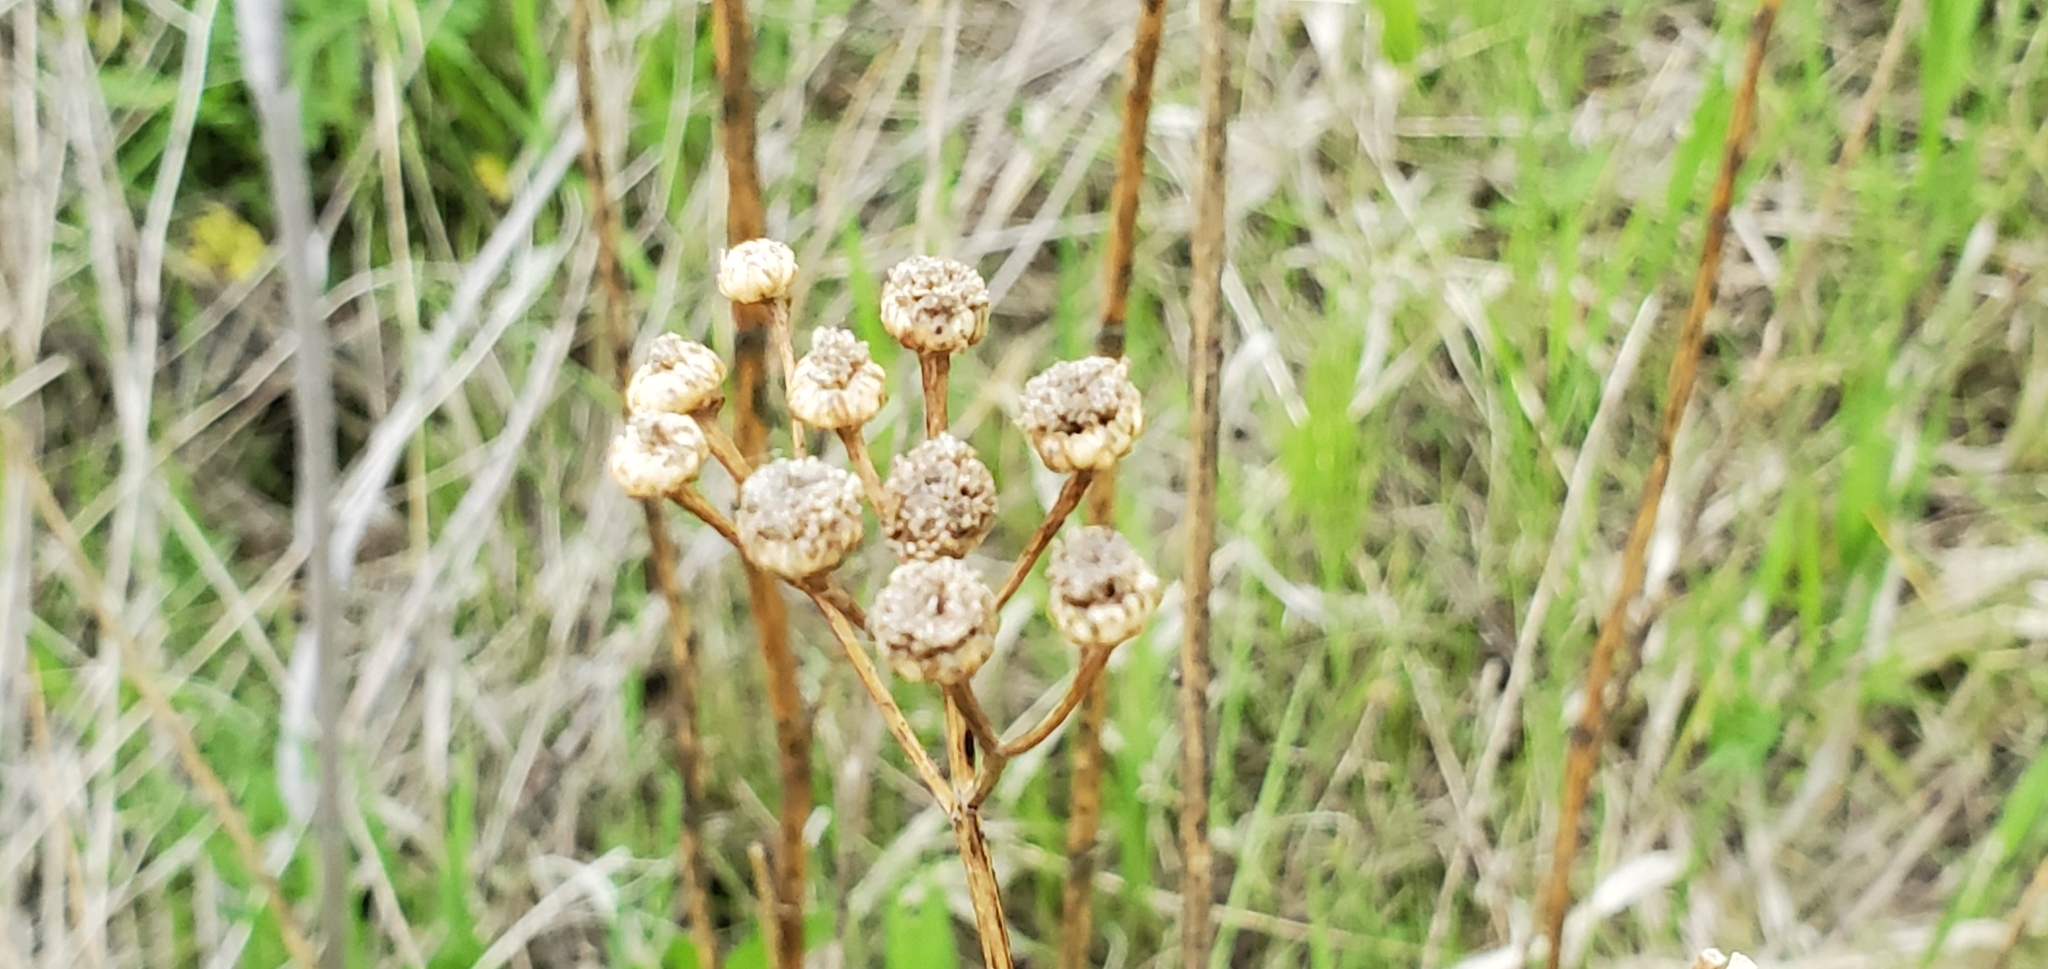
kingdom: Plantae
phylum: Tracheophyta
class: Magnoliopsida
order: Asterales
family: Asteraceae
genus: Tanacetum
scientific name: Tanacetum vulgare
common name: Common tansy
